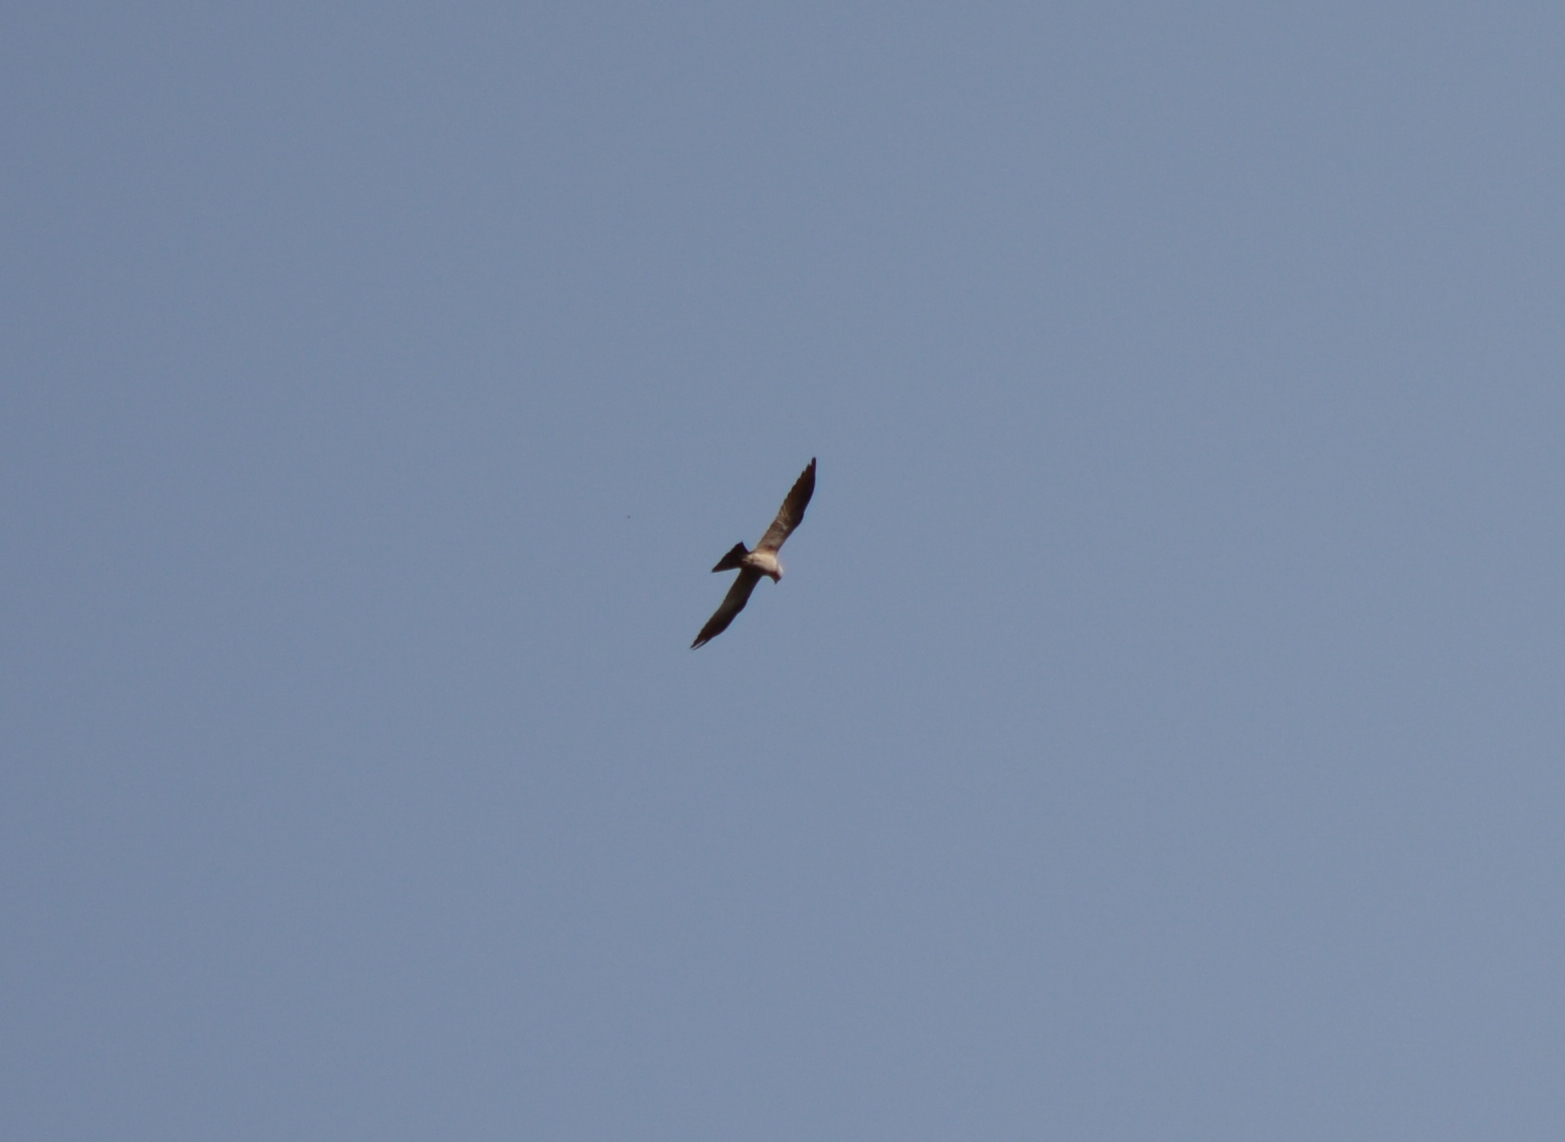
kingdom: Animalia
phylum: Chordata
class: Aves
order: Accipitriformes
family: Accipitridae
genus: Ictinia
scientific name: Ictinia mississippiensis
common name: Mississippi kite
